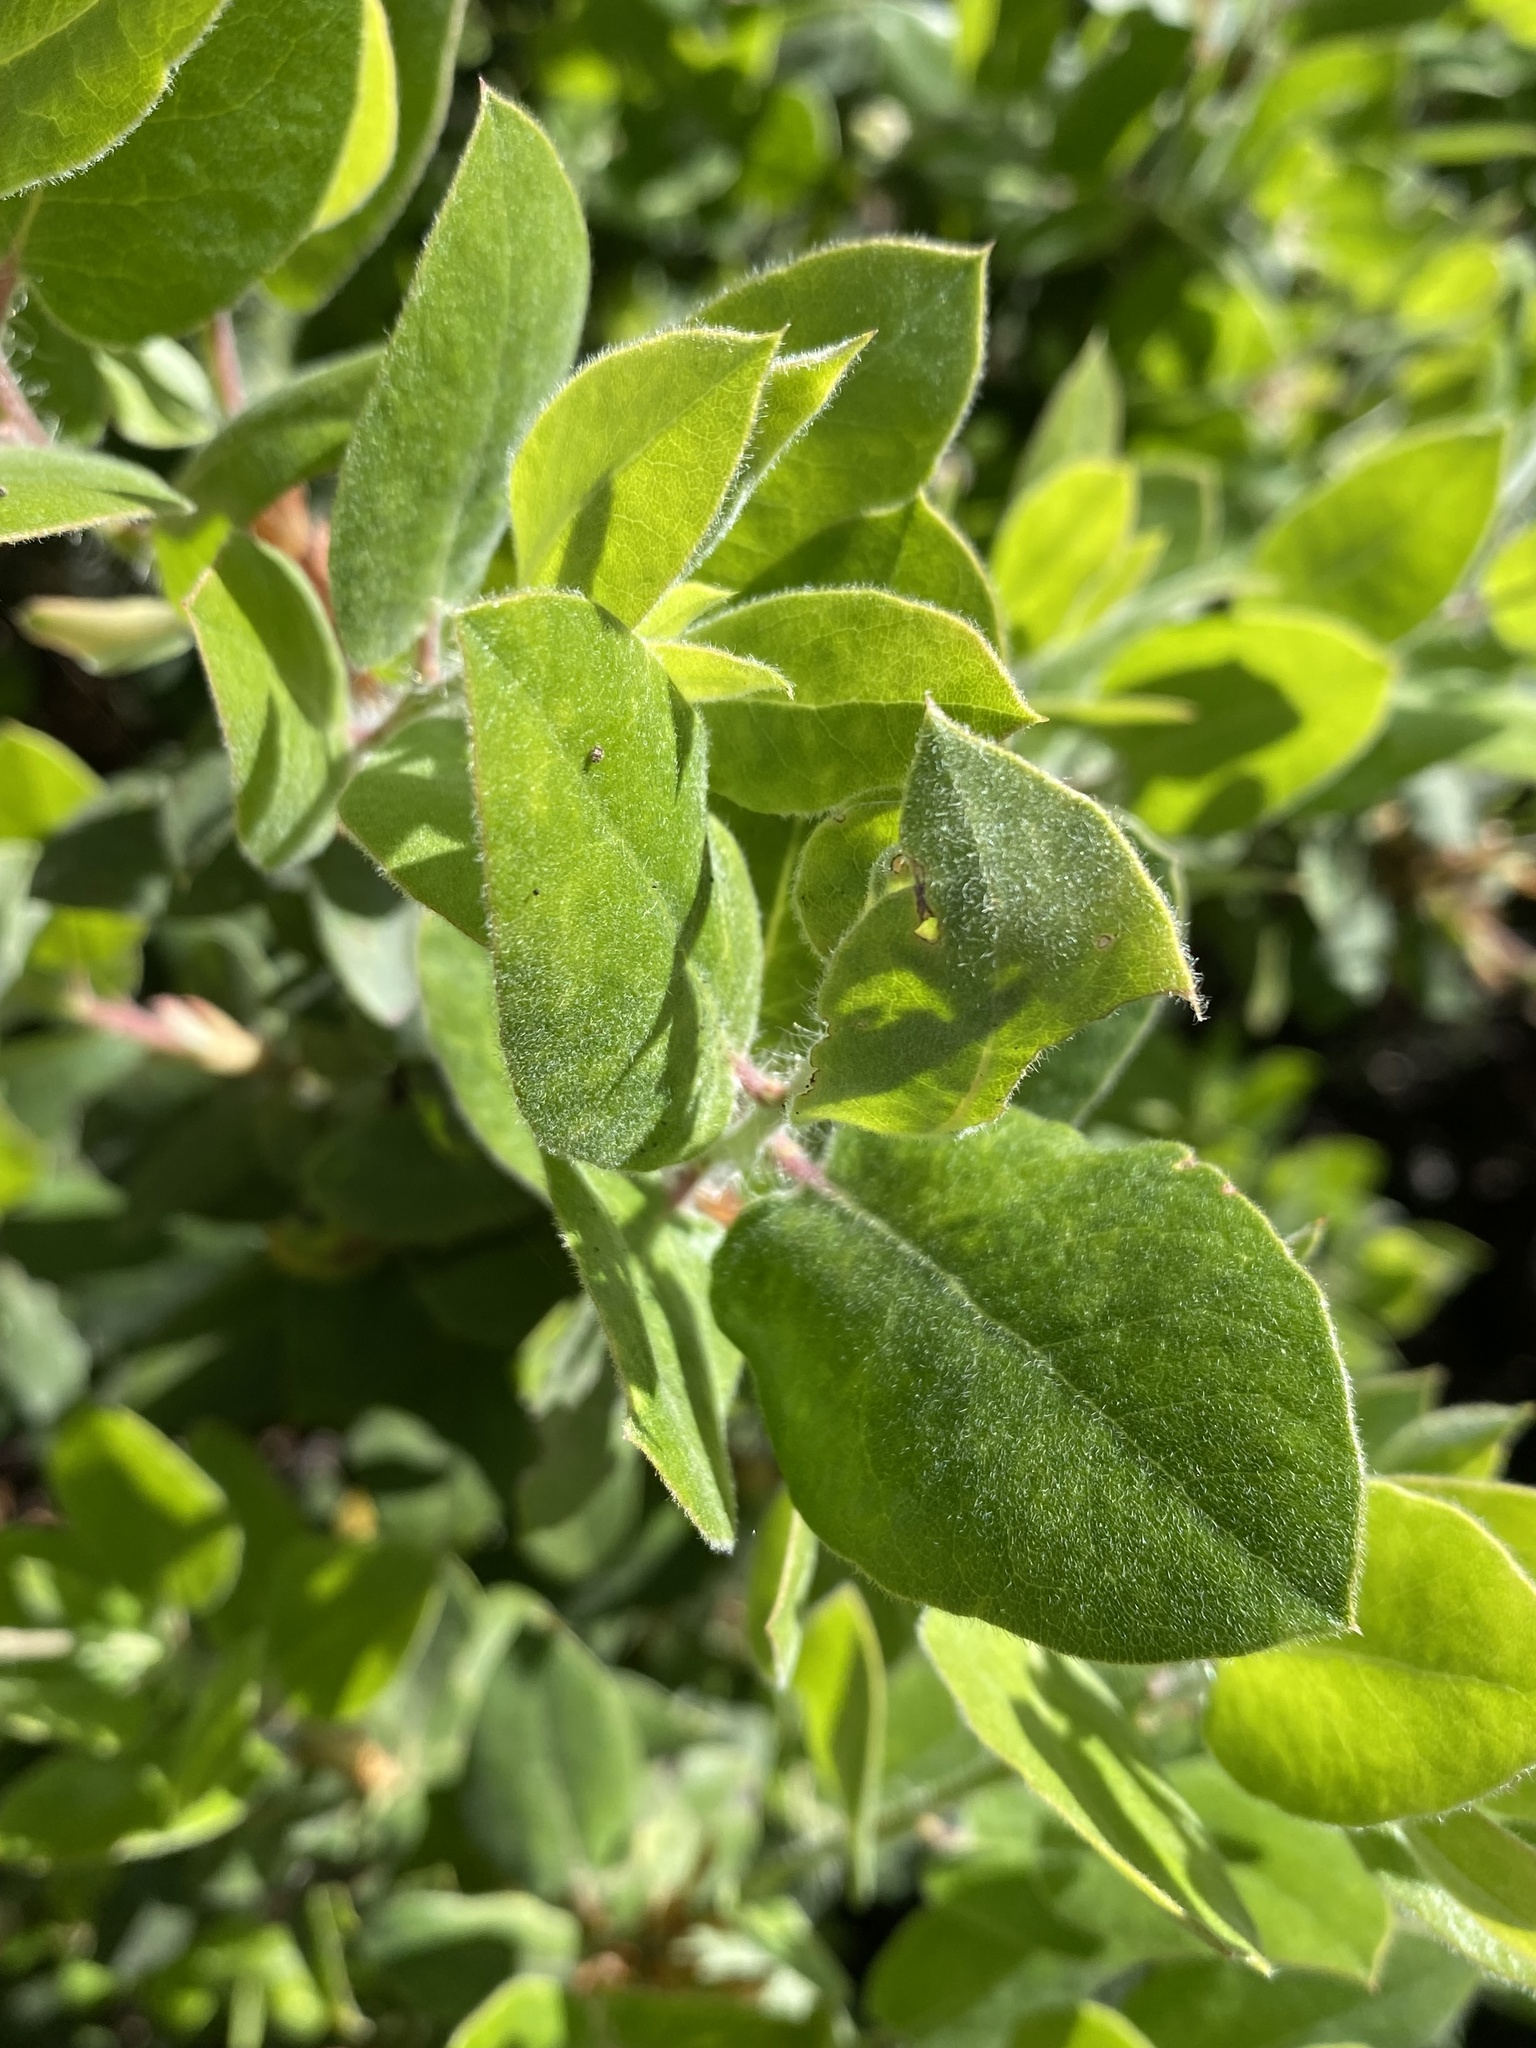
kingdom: Plantae
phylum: Tracheophyta
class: Magnoliopsida
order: Ericales
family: Ericaceae
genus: Arctostaphylos
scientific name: Arctostaphylos crustacea
